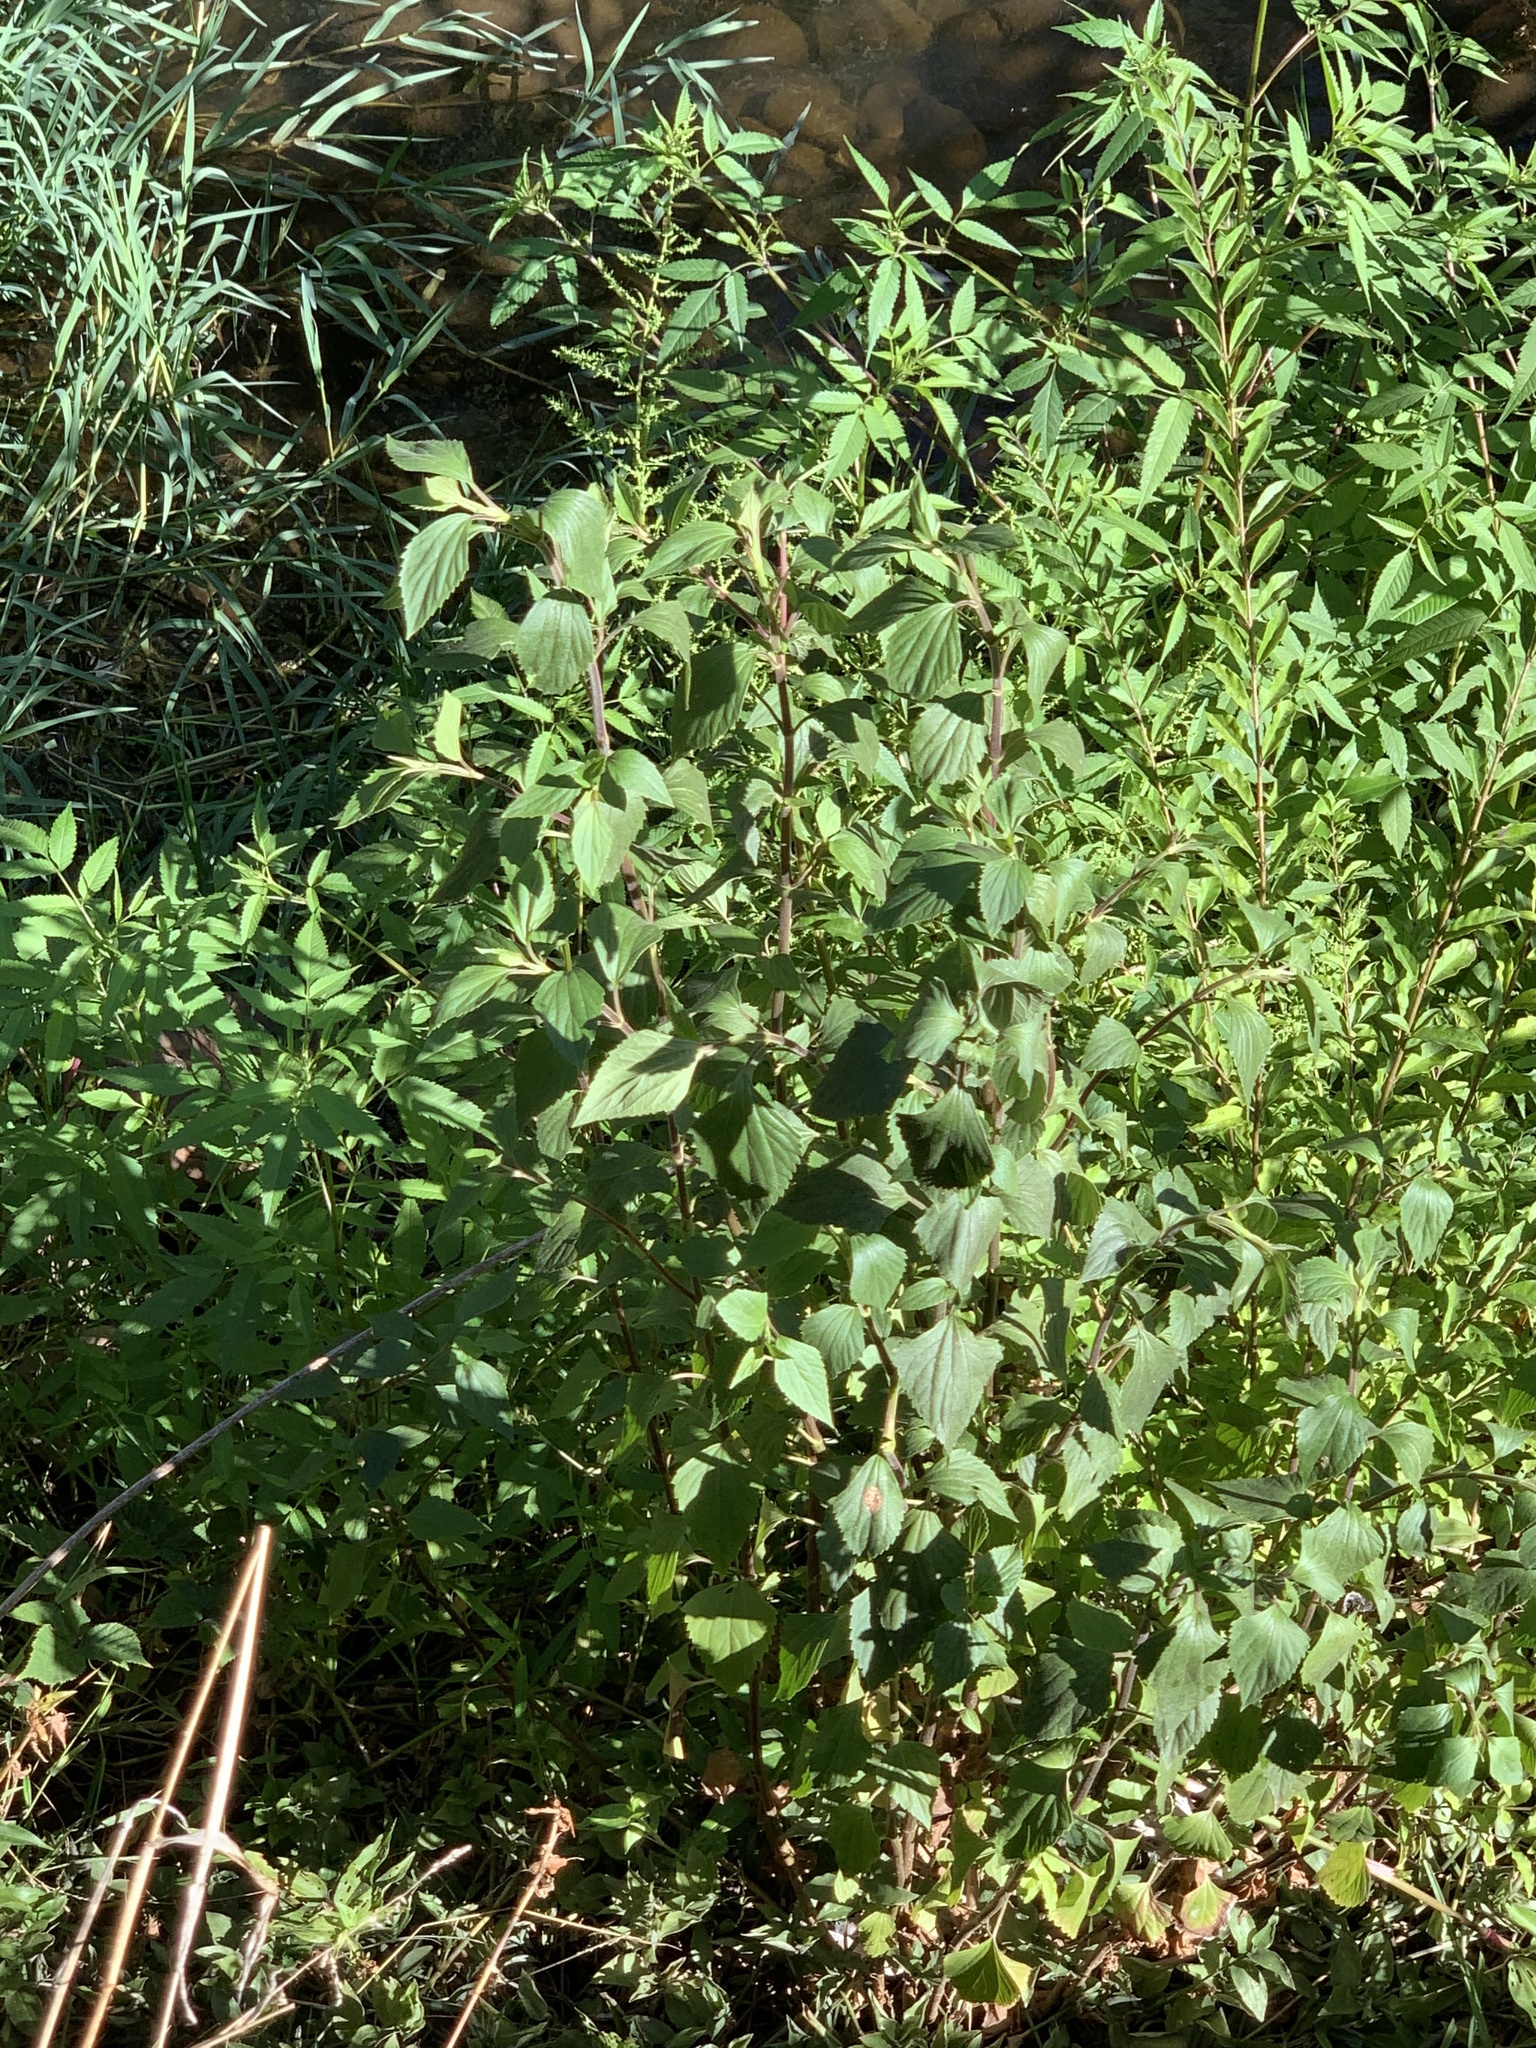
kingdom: Plantae
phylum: Tracheophyta
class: Magnoliopsida
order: Asterales
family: Asteraceae
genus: Ageratina
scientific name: Ageratina adenophora
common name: Sticky snakeroot
